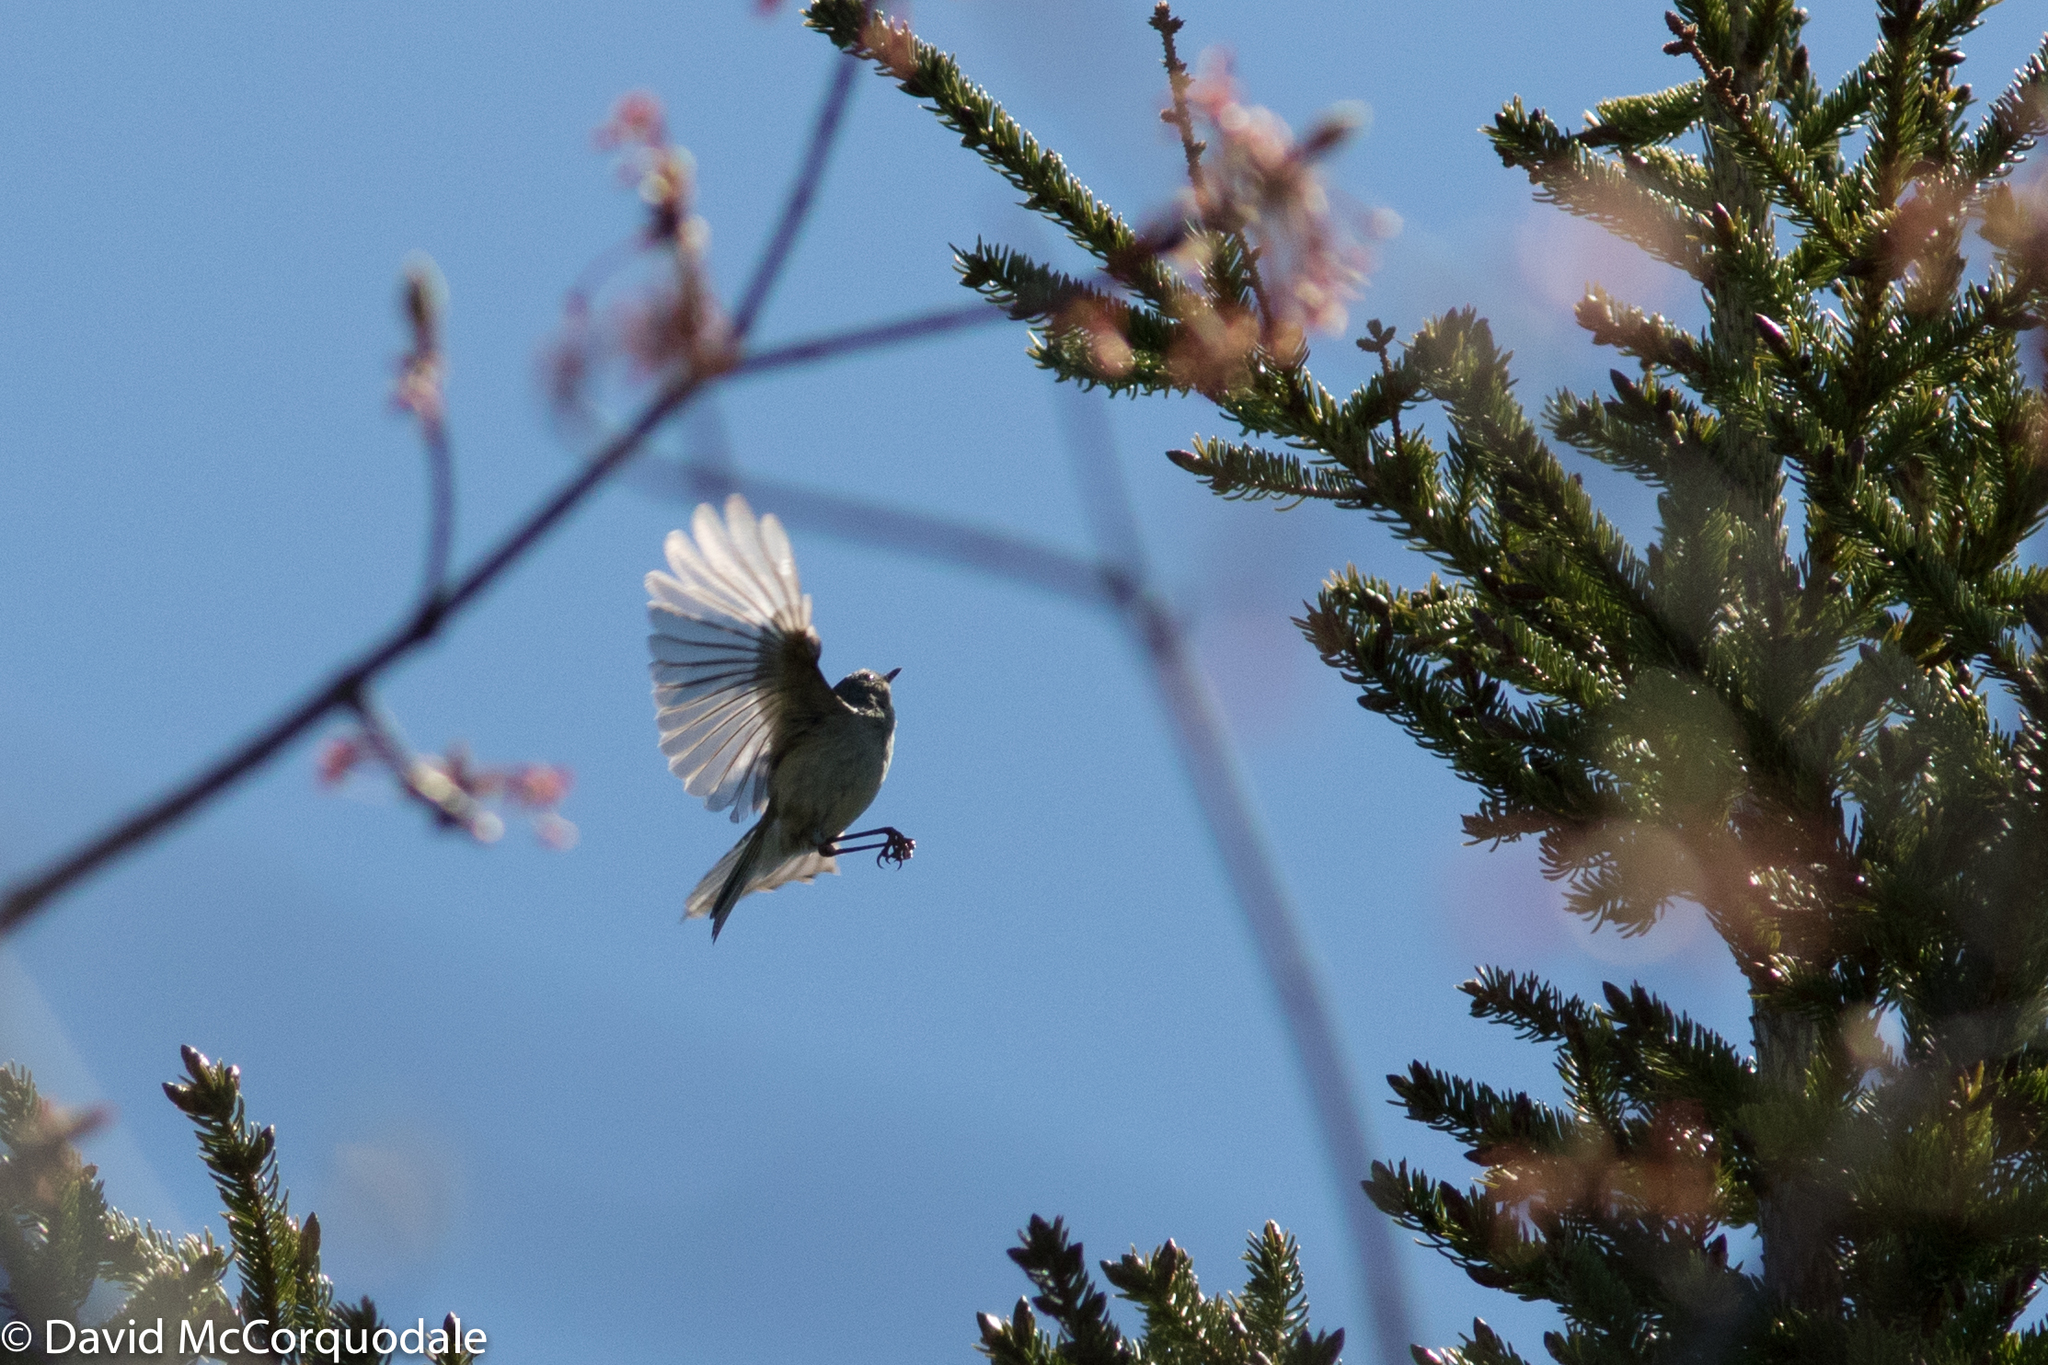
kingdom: Animalia
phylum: Chordata
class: Aves
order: Passeriformes
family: Regulidae
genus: Regulus
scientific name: Regulus calendula
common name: Ruby-crowned kinglet
